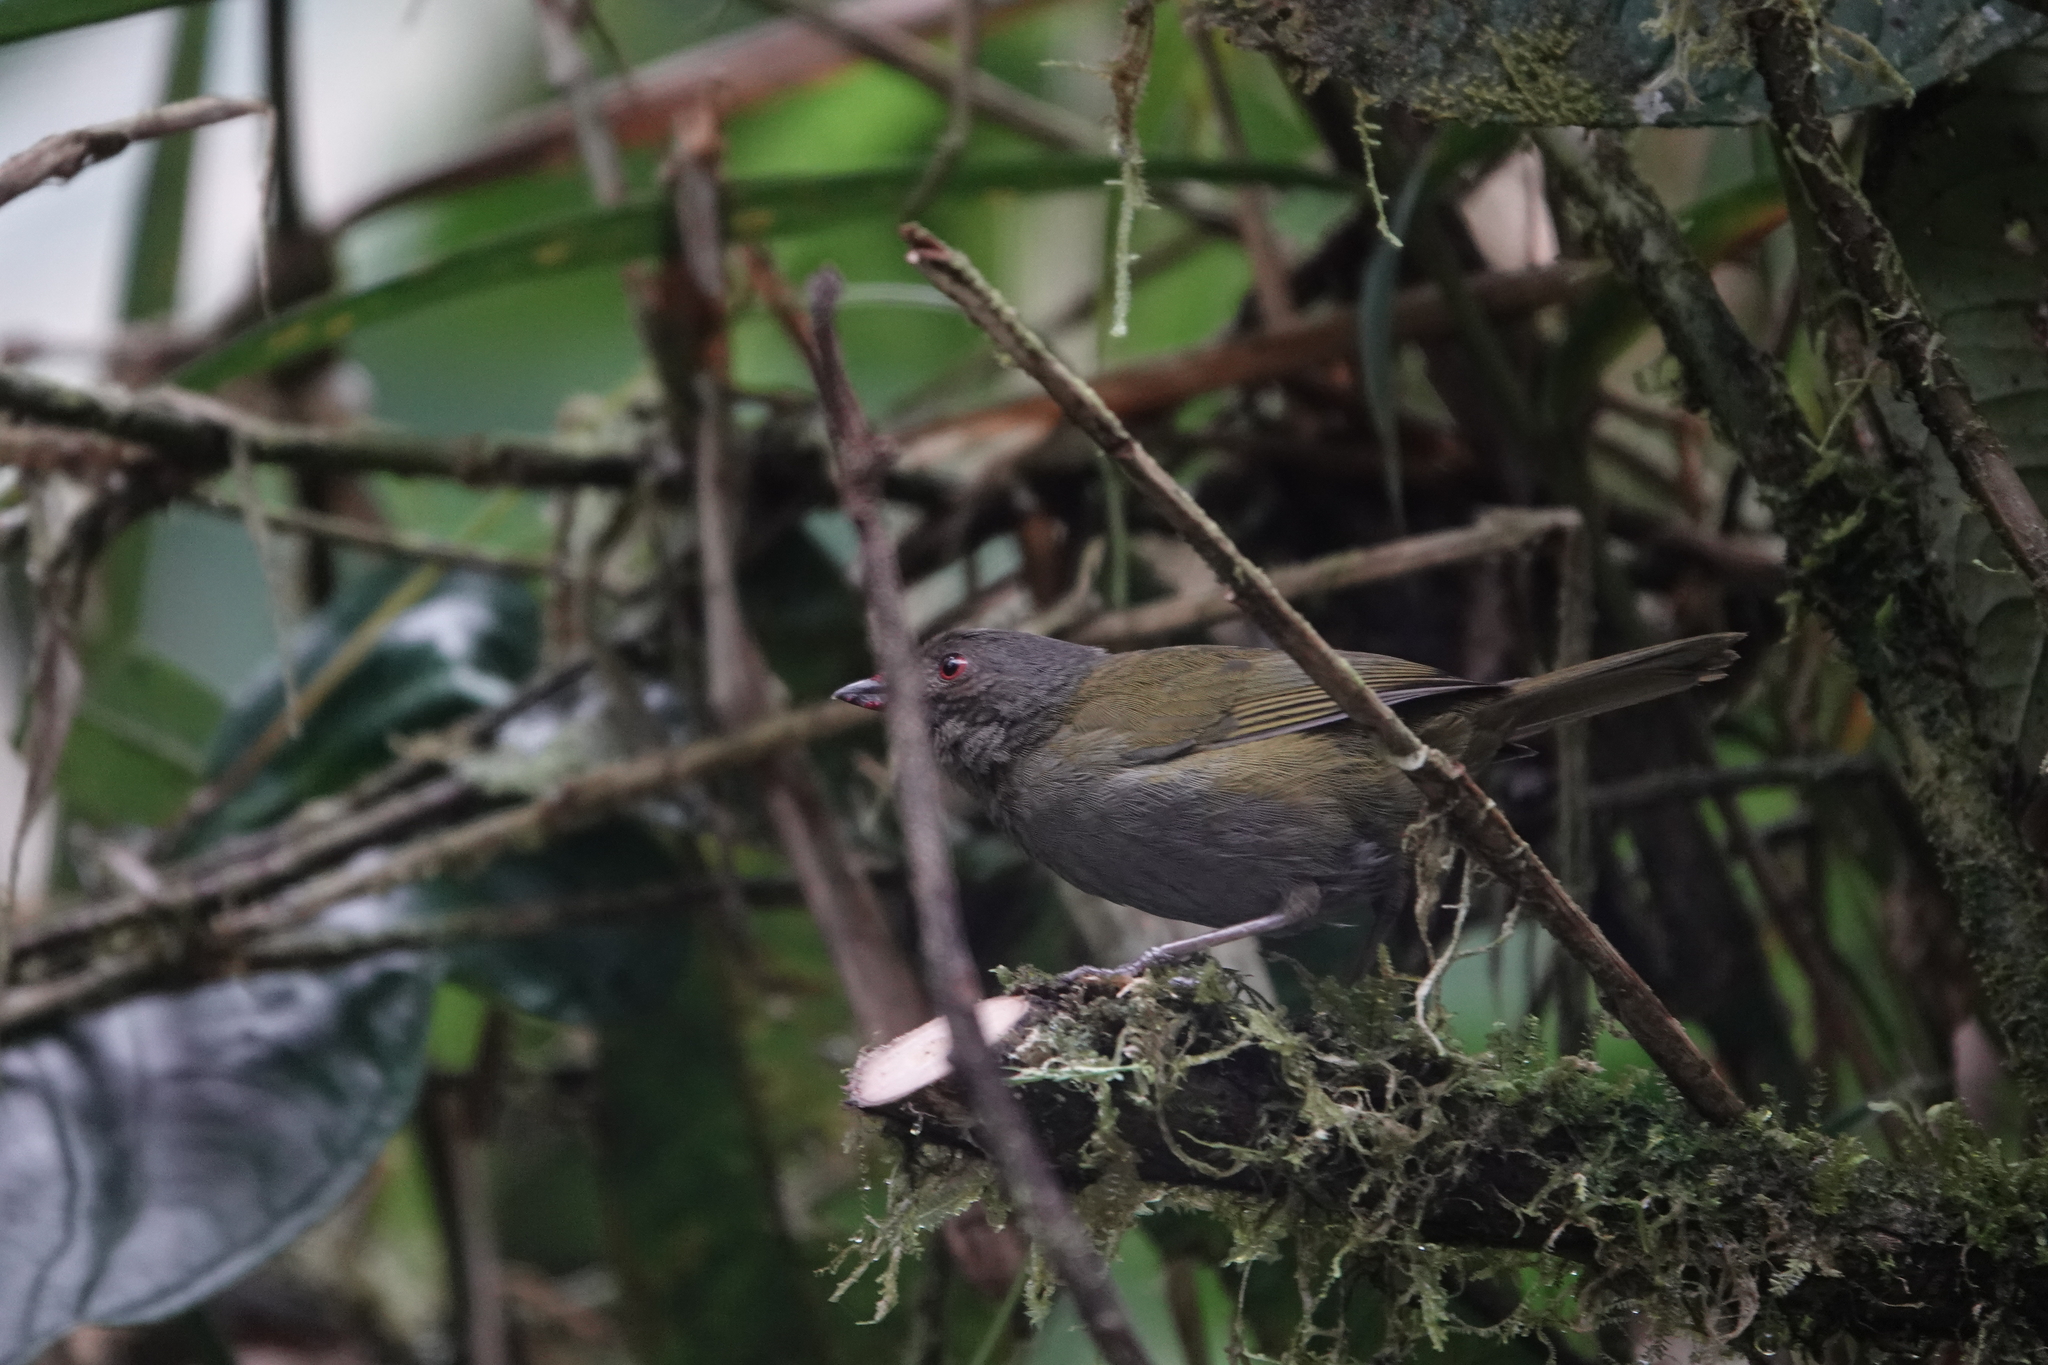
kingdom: Animalia
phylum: Chordata
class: Aves
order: Passeriformes
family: Passerellidae
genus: Chlorospingus
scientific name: Chlorospingus semifuscus
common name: Dusky bush-tanager
